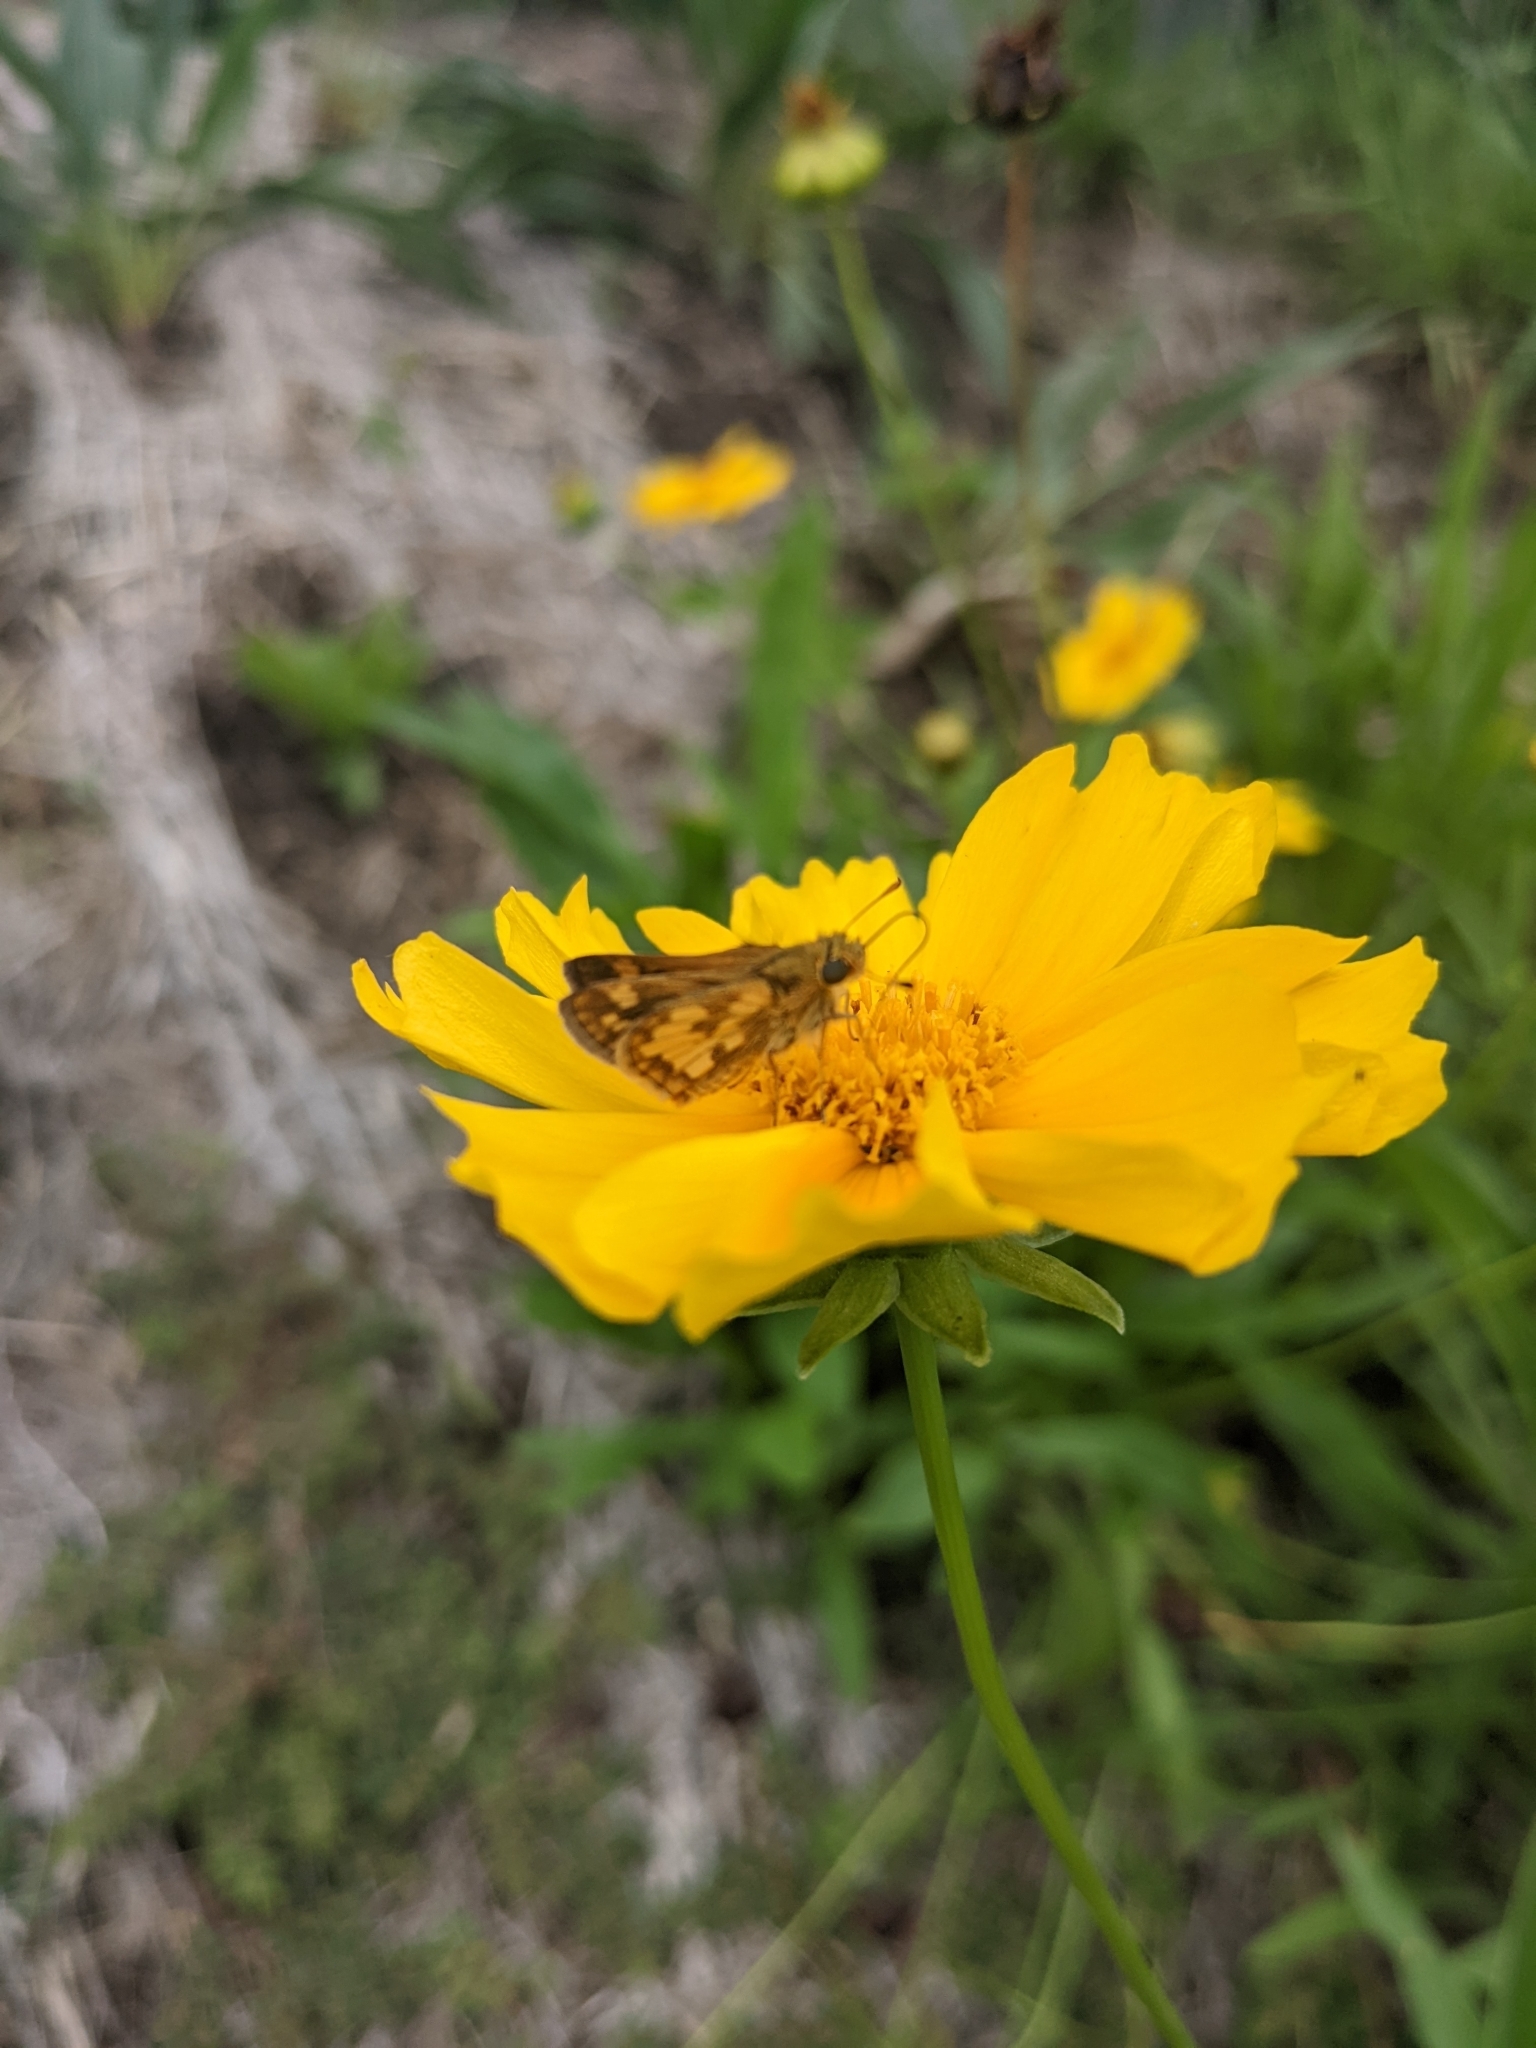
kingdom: Animalia
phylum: Arthropoda
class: Insecta
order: Lepidoptera
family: Hesperiidae
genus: Polites
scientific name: Polites coras
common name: Peck's skipper
